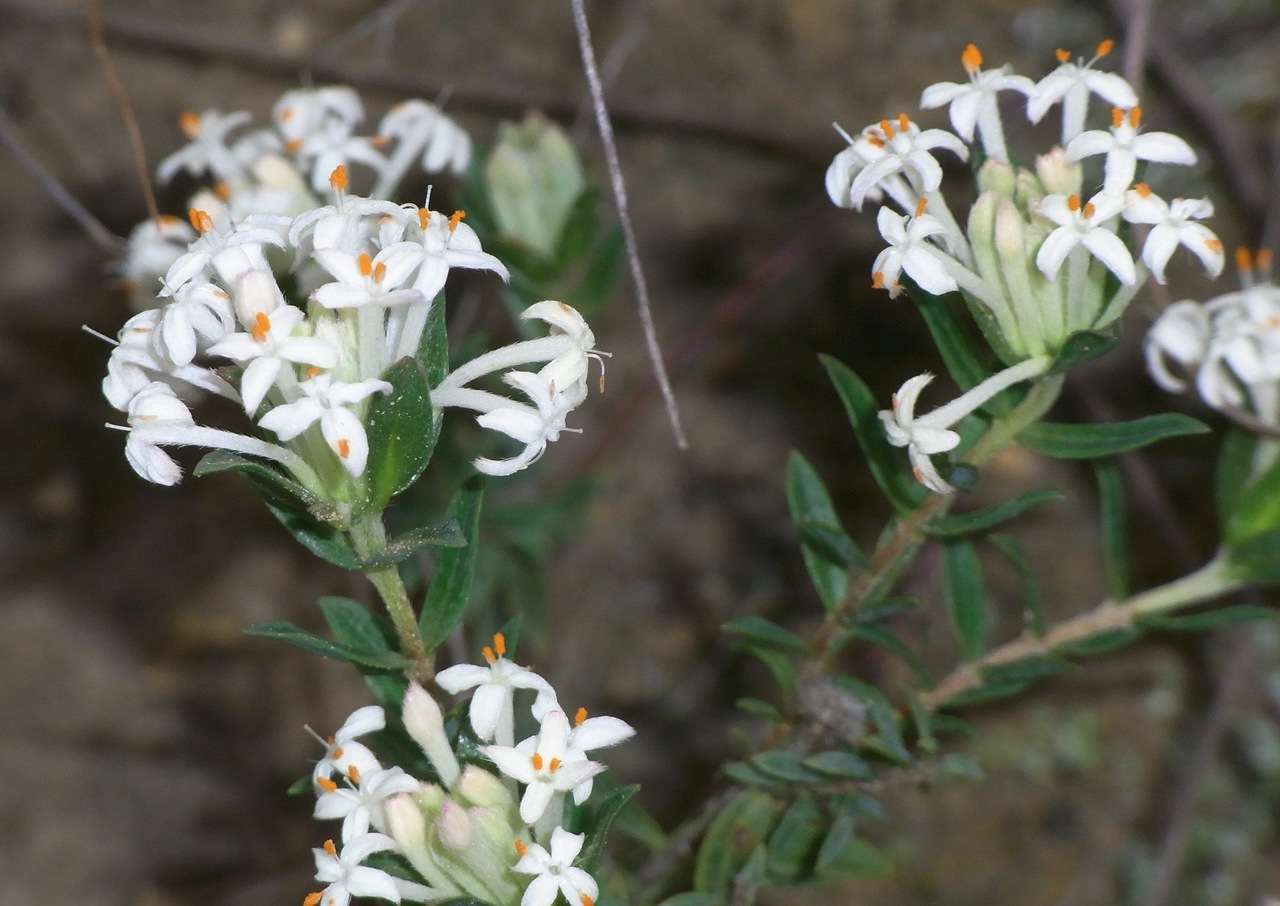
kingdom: Plantae
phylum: Tracheophyta
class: Magnoliopsida
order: Malvales
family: Thymelaeaceae
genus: Pimelea
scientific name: Pimelea humilis
